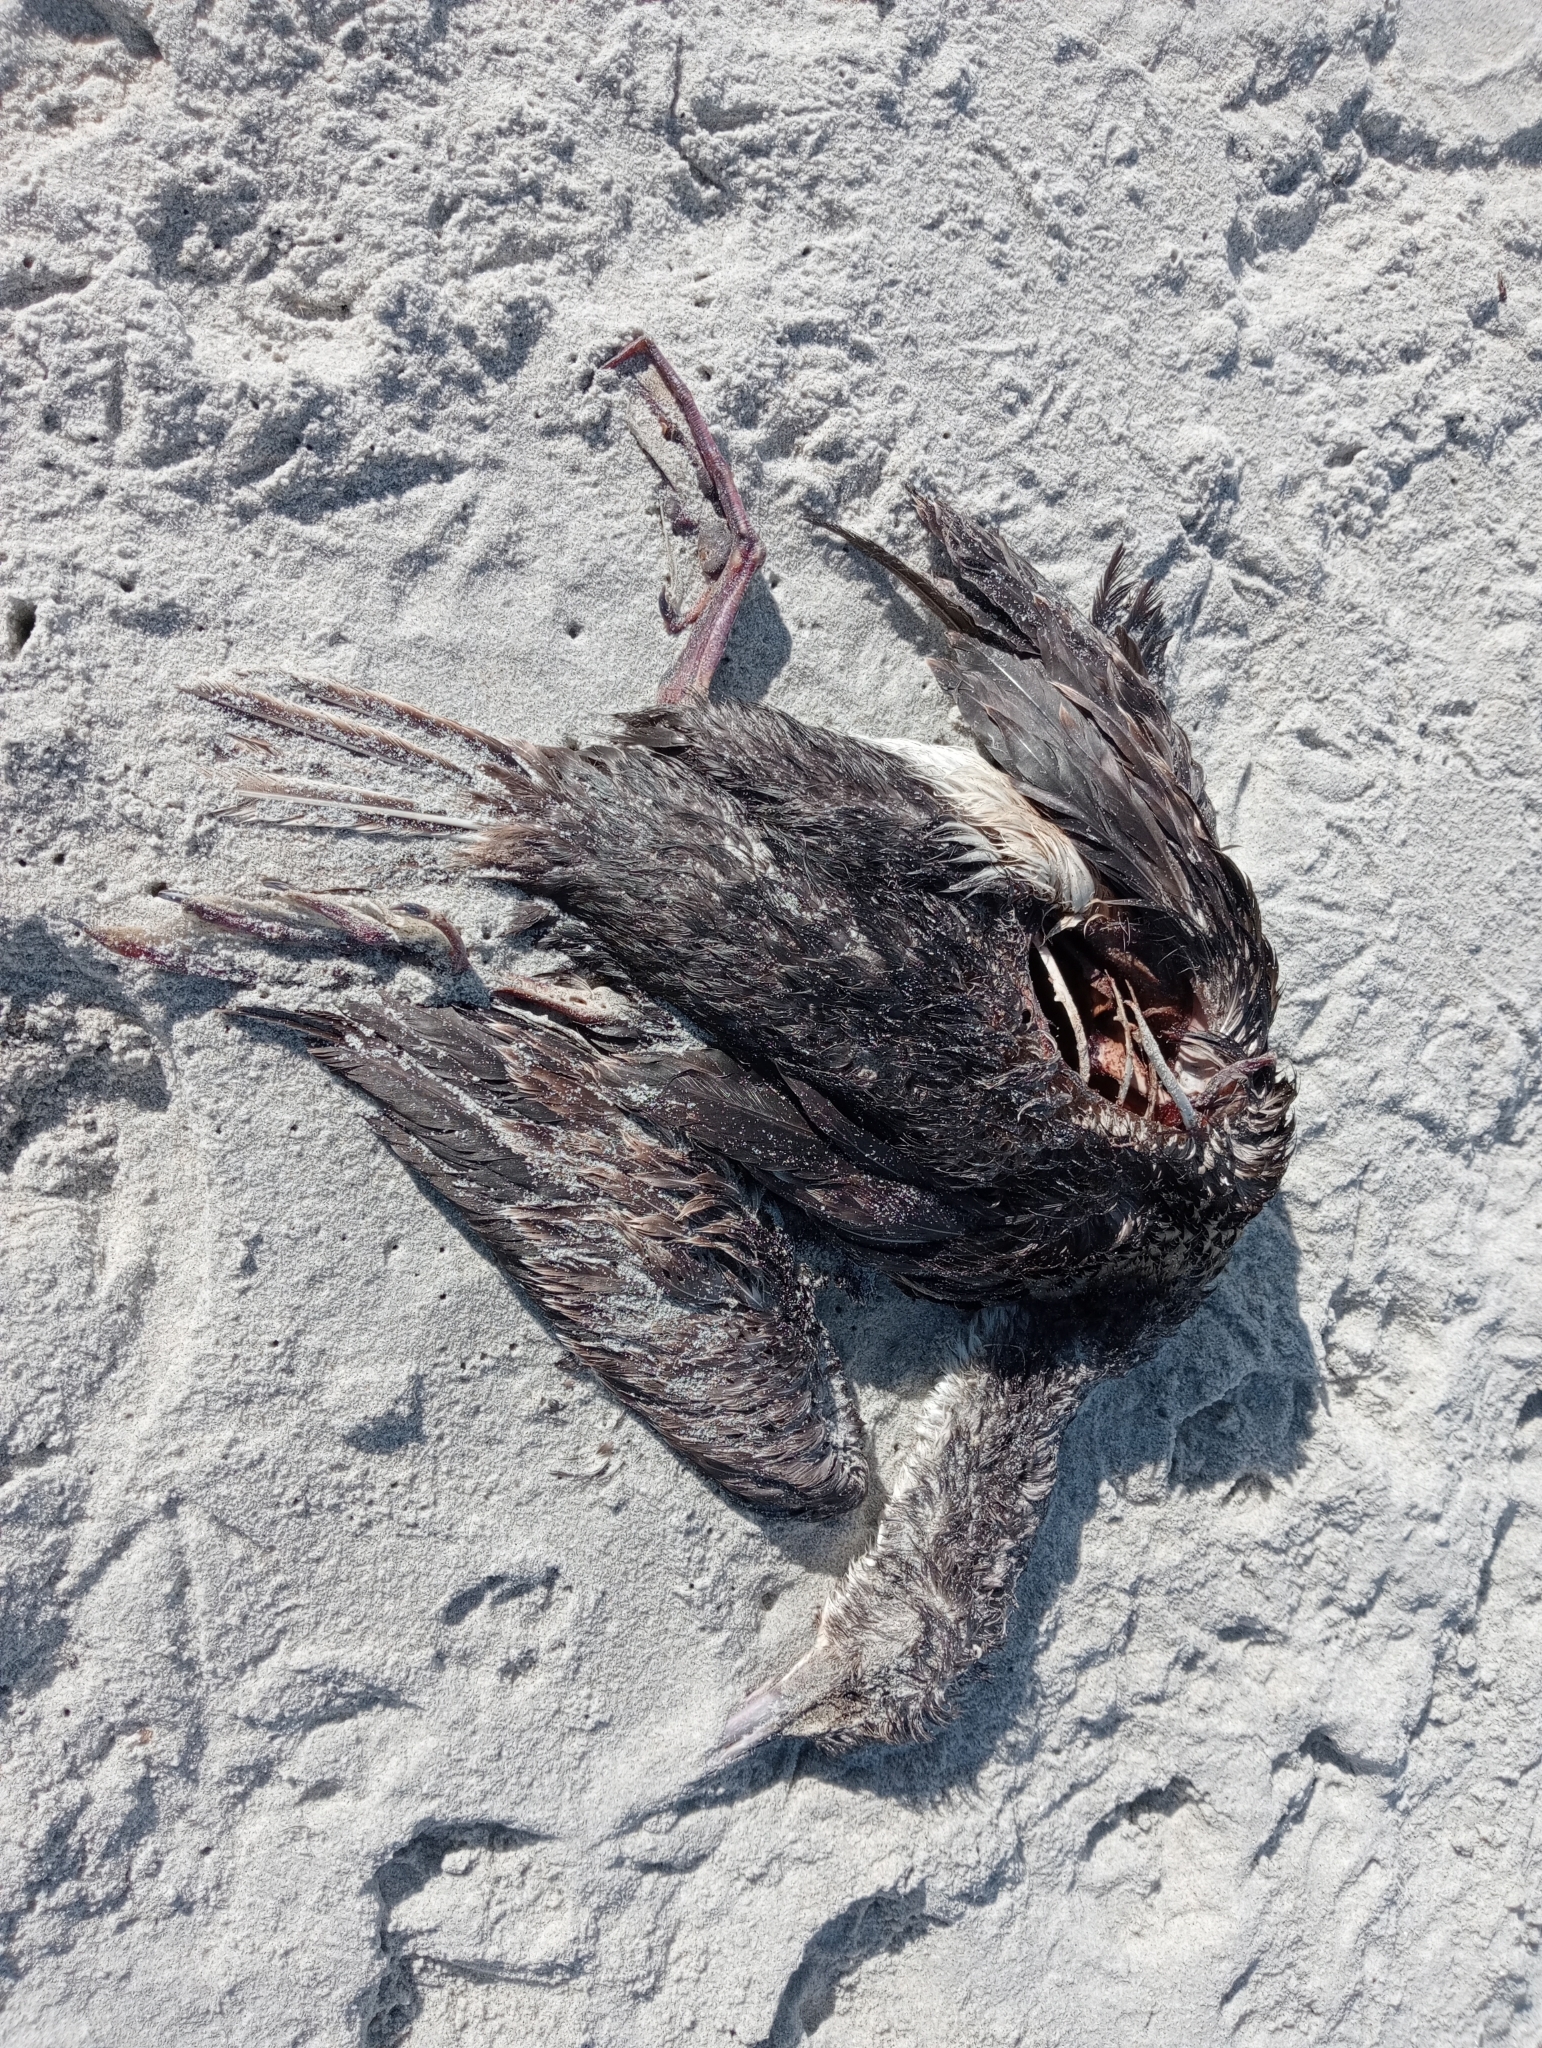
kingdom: Animalia
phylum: Chordata
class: Aves
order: Suliformes
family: Phalacrocoracidae
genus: Leucocarbo
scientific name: Leucocarbo chalconotus
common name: Stewart shag
